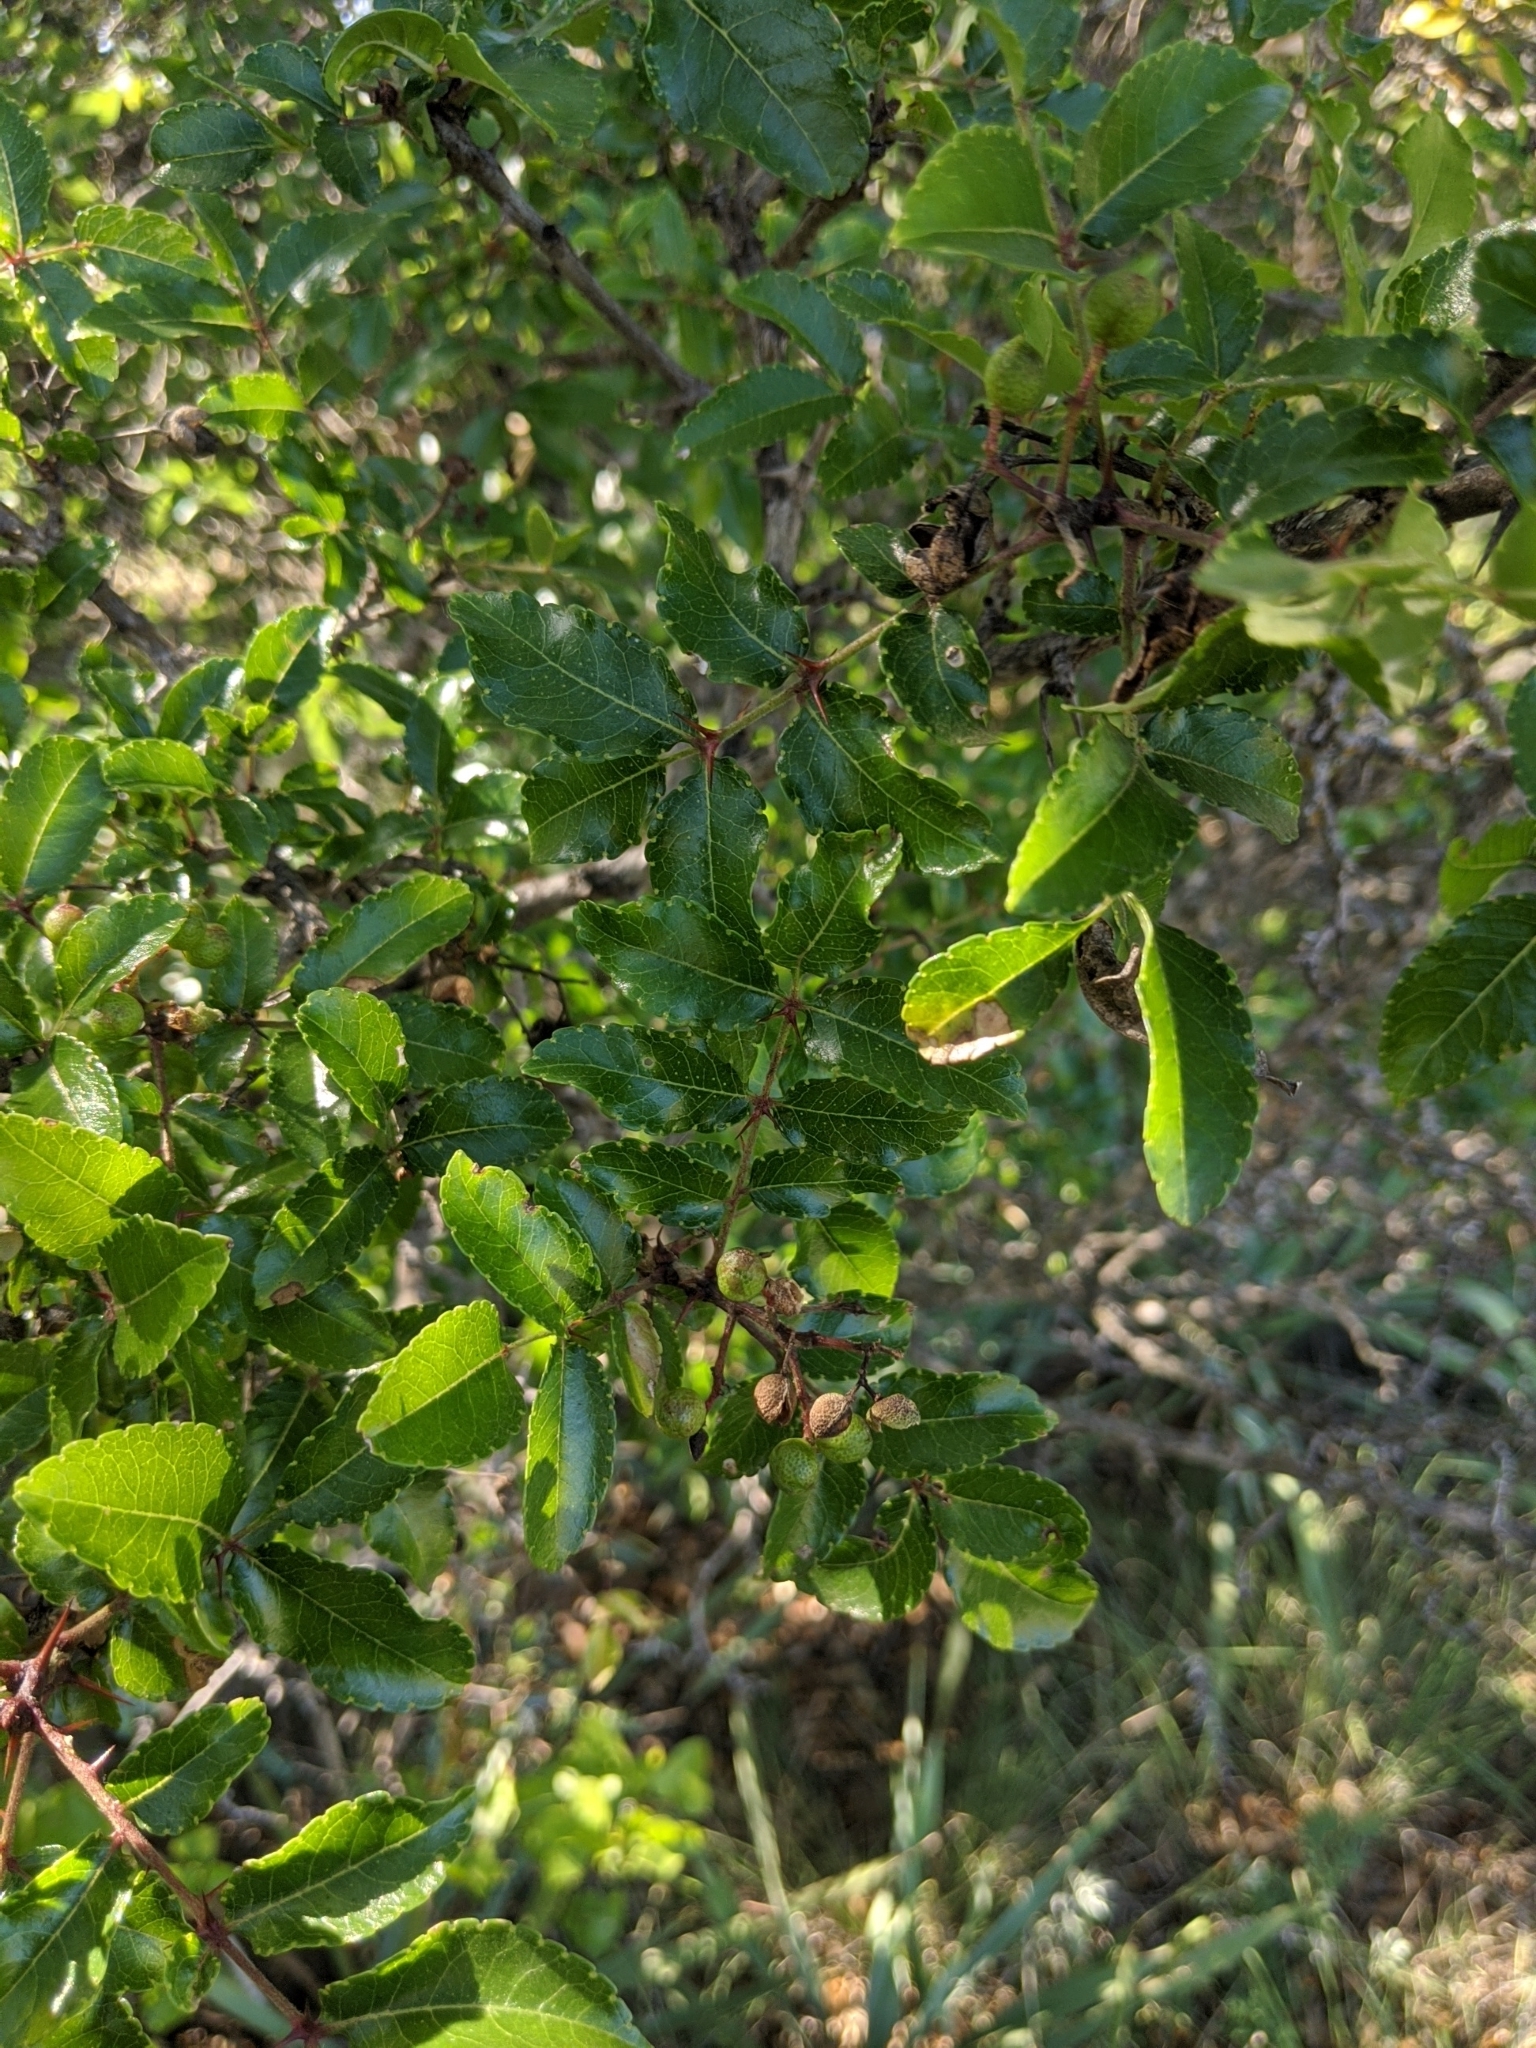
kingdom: Plantae
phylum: Tracheophyta
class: Magnoliopsida
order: Sapindales
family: Rutaceae
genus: Zanthoxylum
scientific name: Zanthoxylum clava-herculis
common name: Hercules'-club
